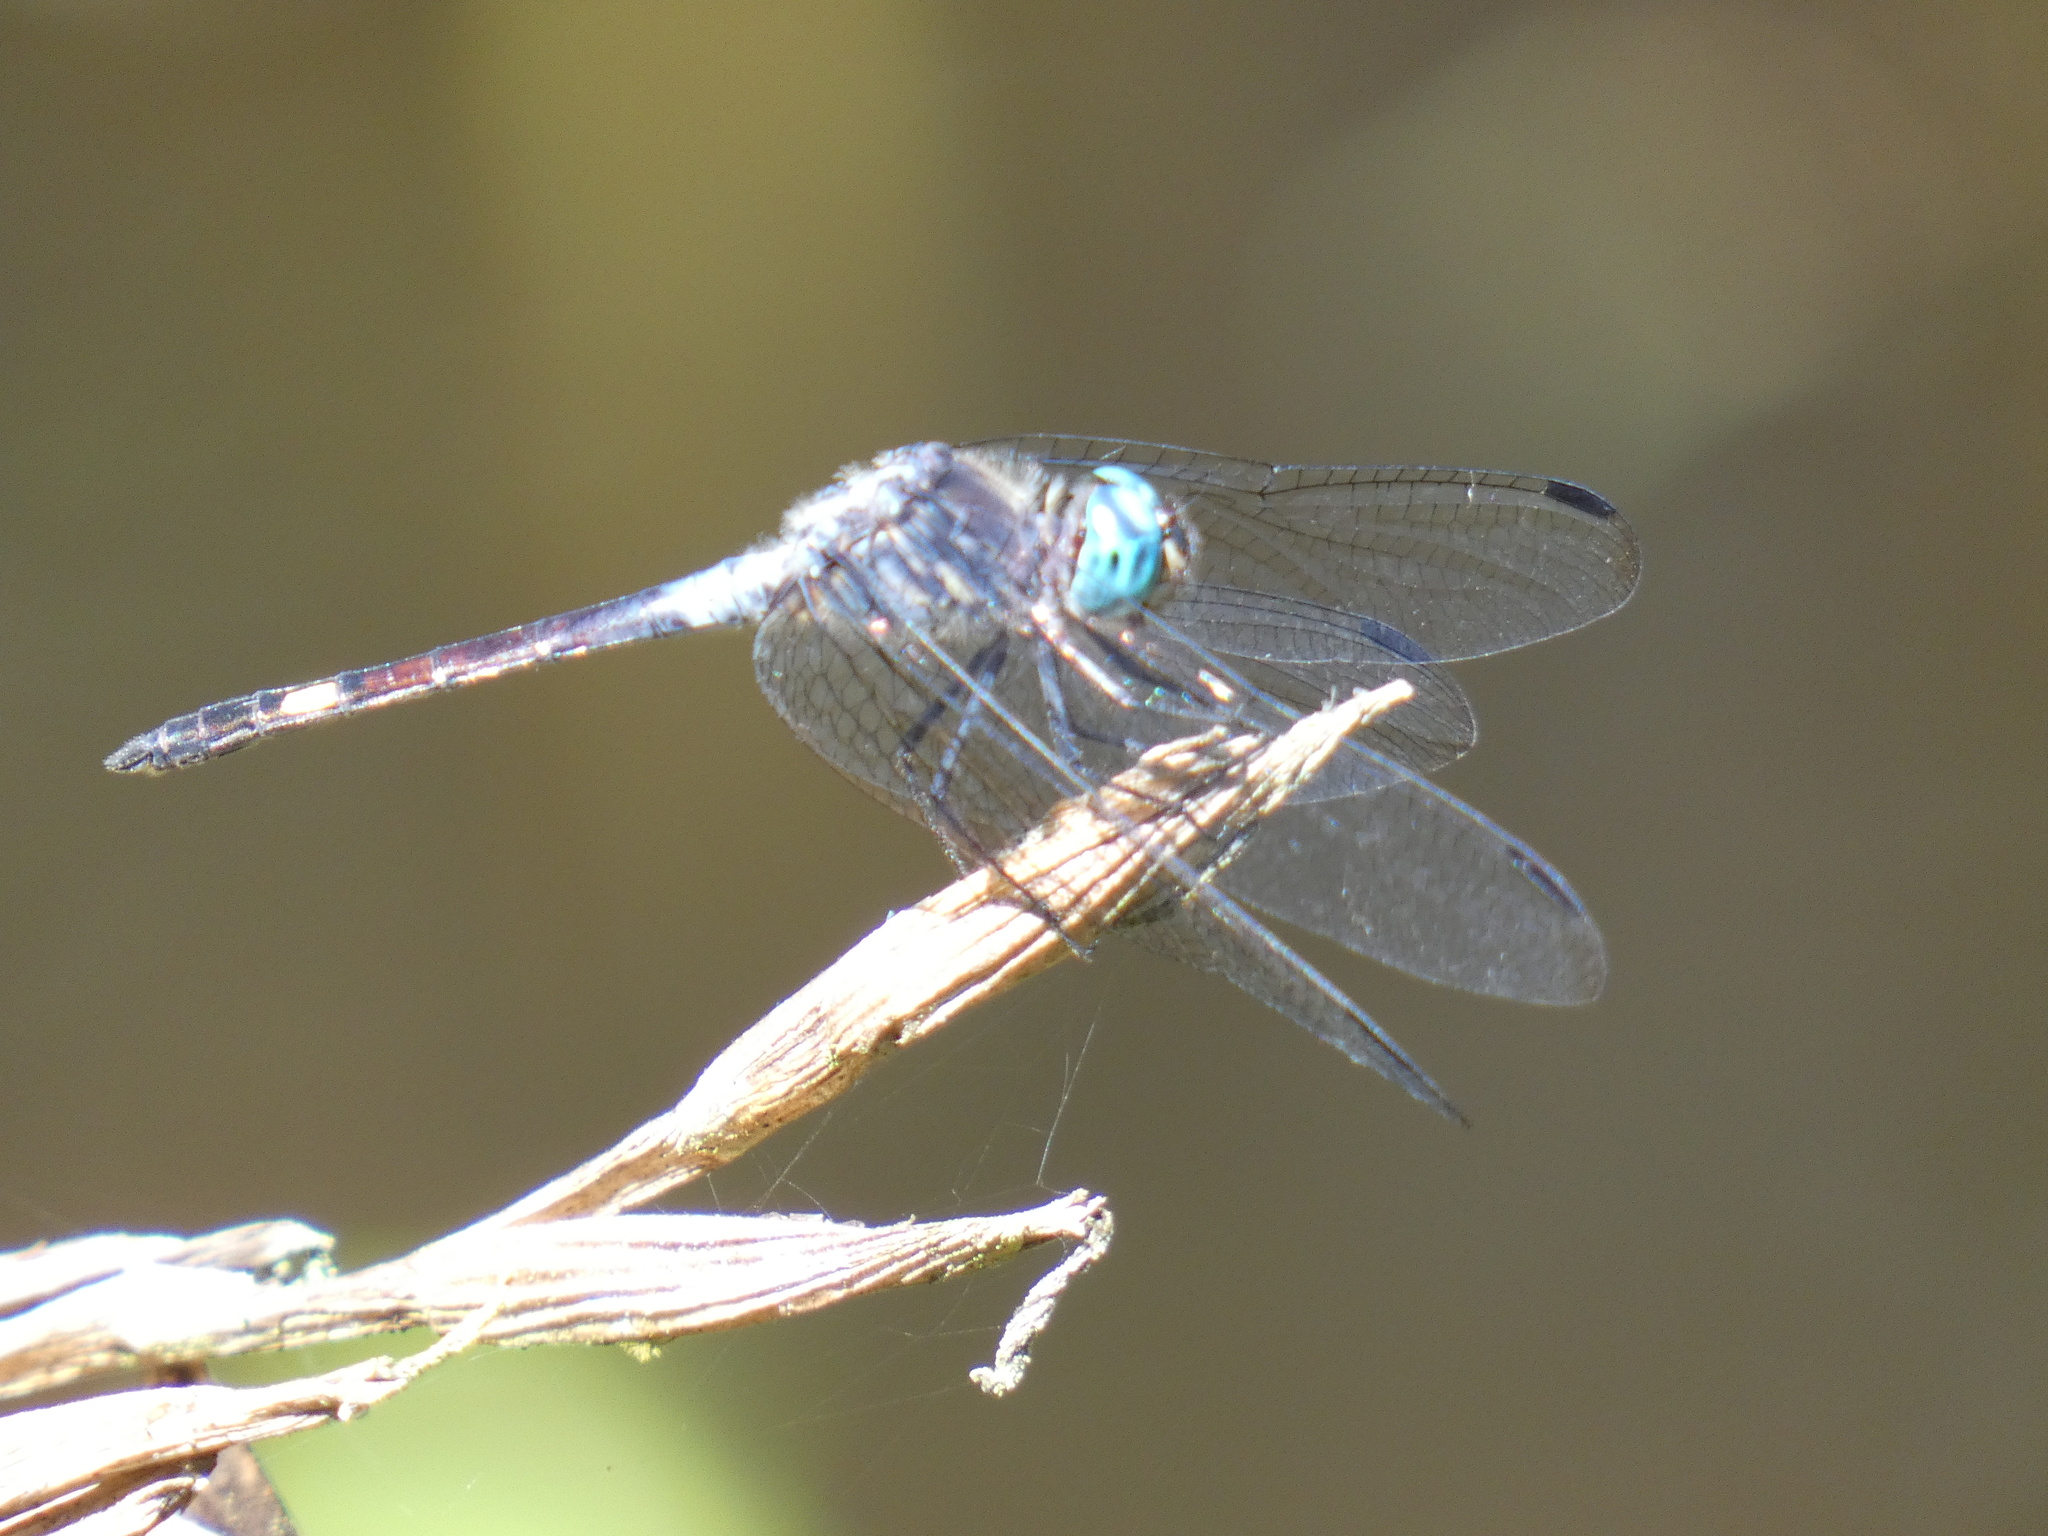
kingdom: Animalia
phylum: Arthropoda
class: Insecta
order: Odonata
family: Libellulidae
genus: Micrathyria
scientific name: Micrathyria atra
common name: Black dasher
